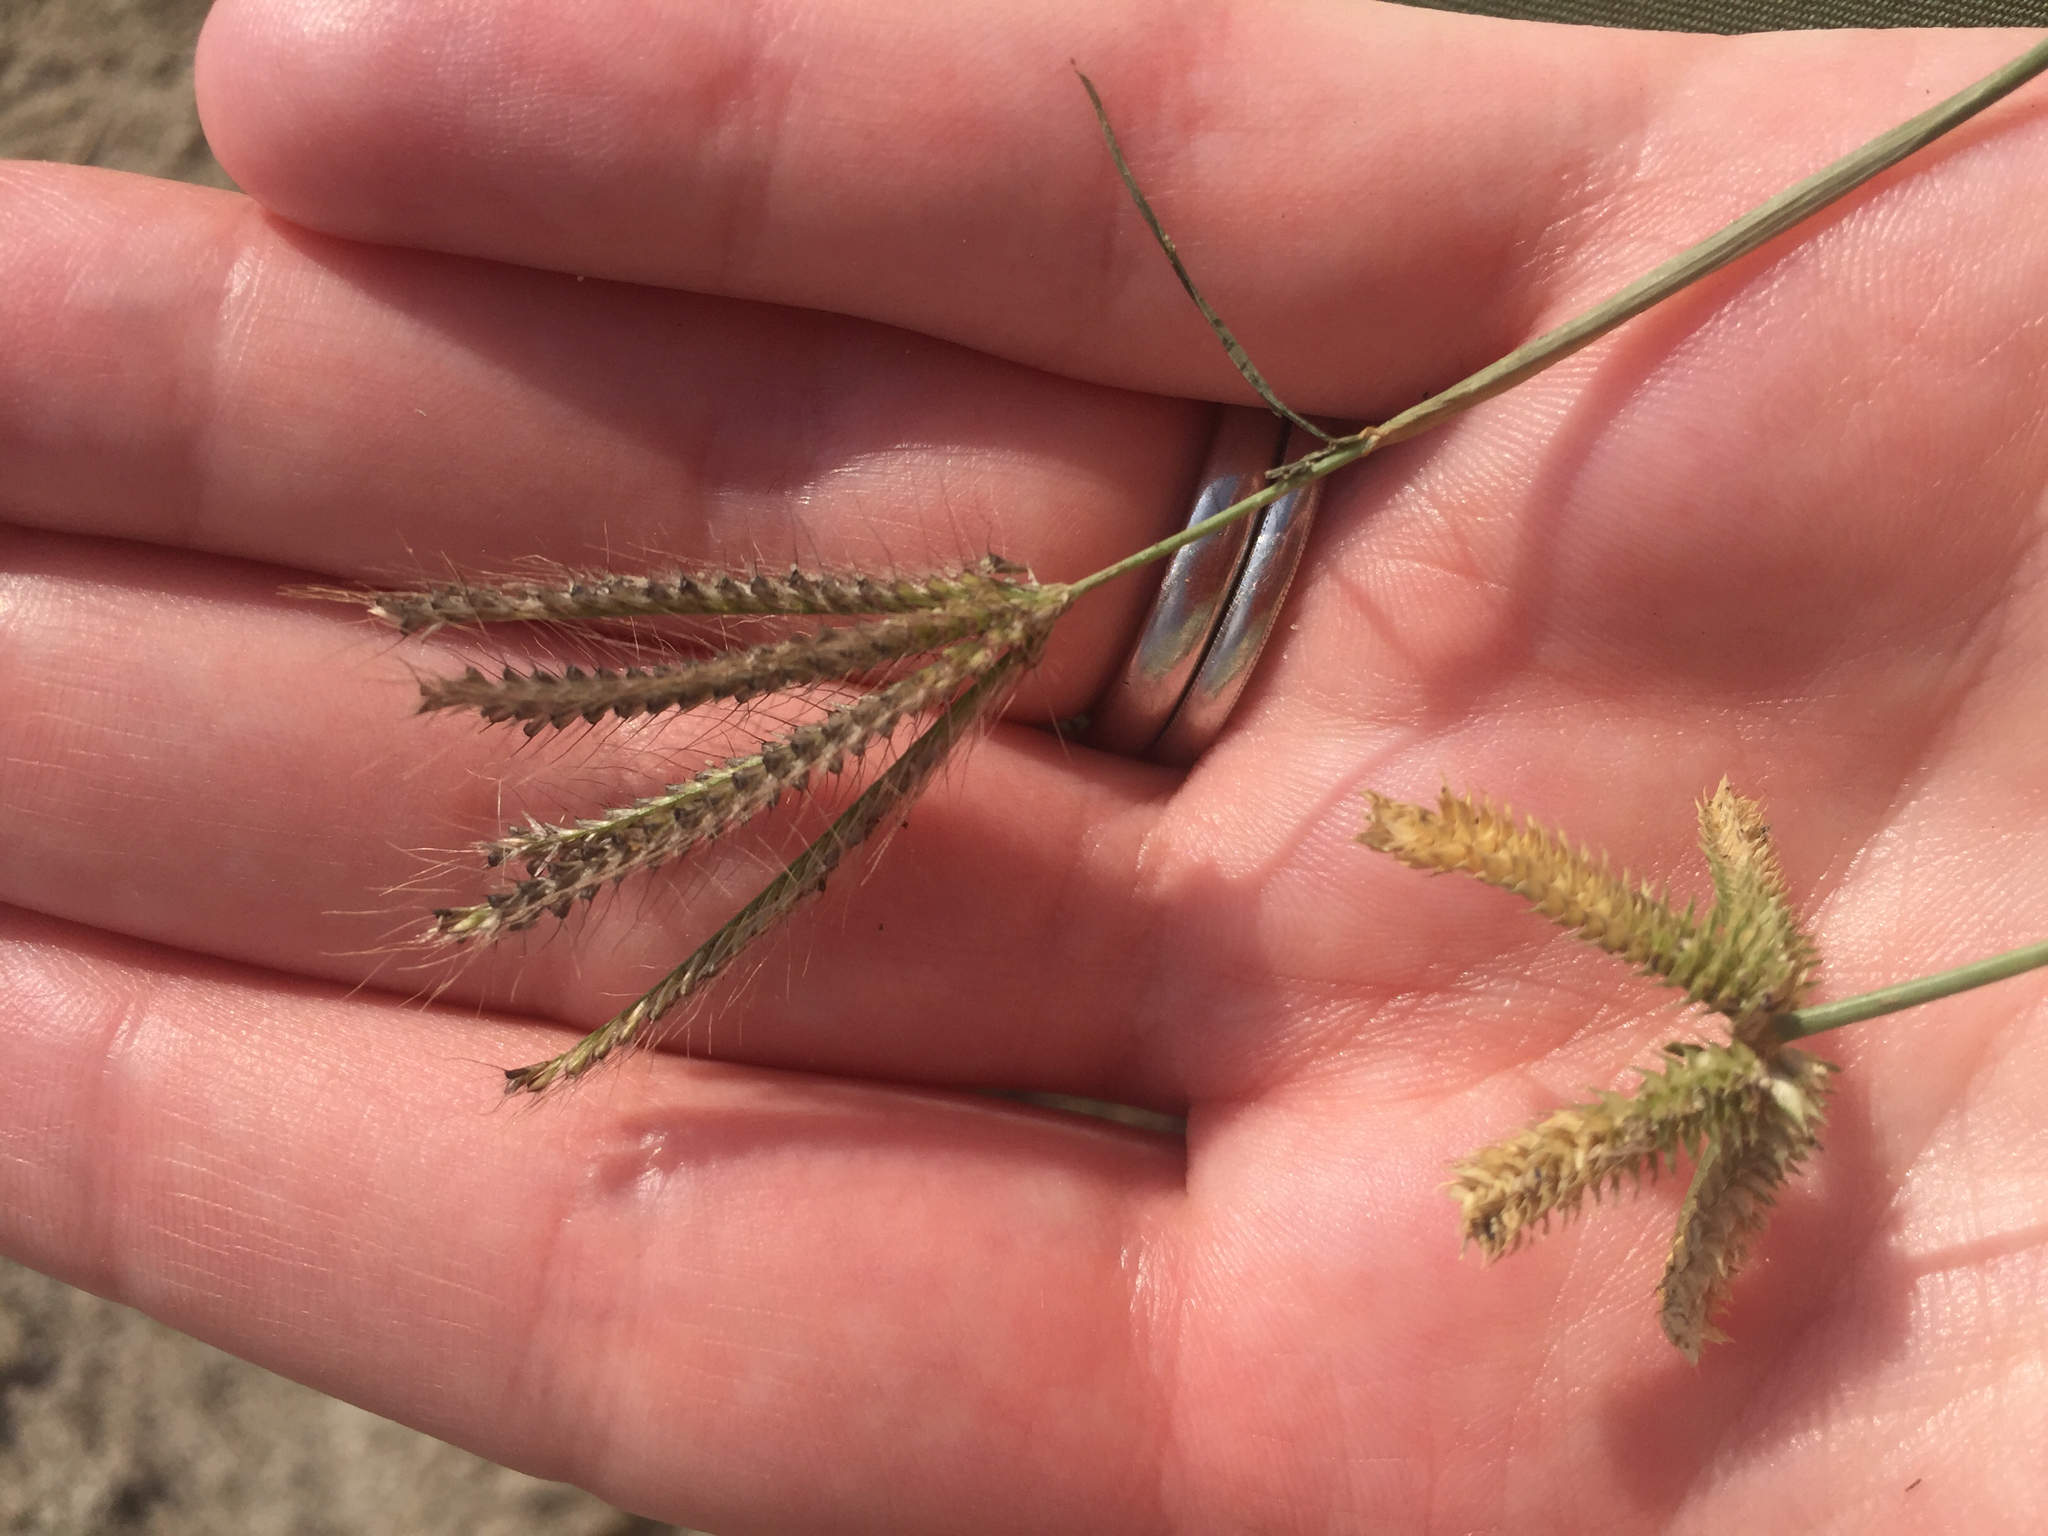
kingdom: Plantae
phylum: Tracheophyta
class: Liliopsida
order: Poales
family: Poaceae
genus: Chloris
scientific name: Chloris barbata
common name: Swollen fingergrass
